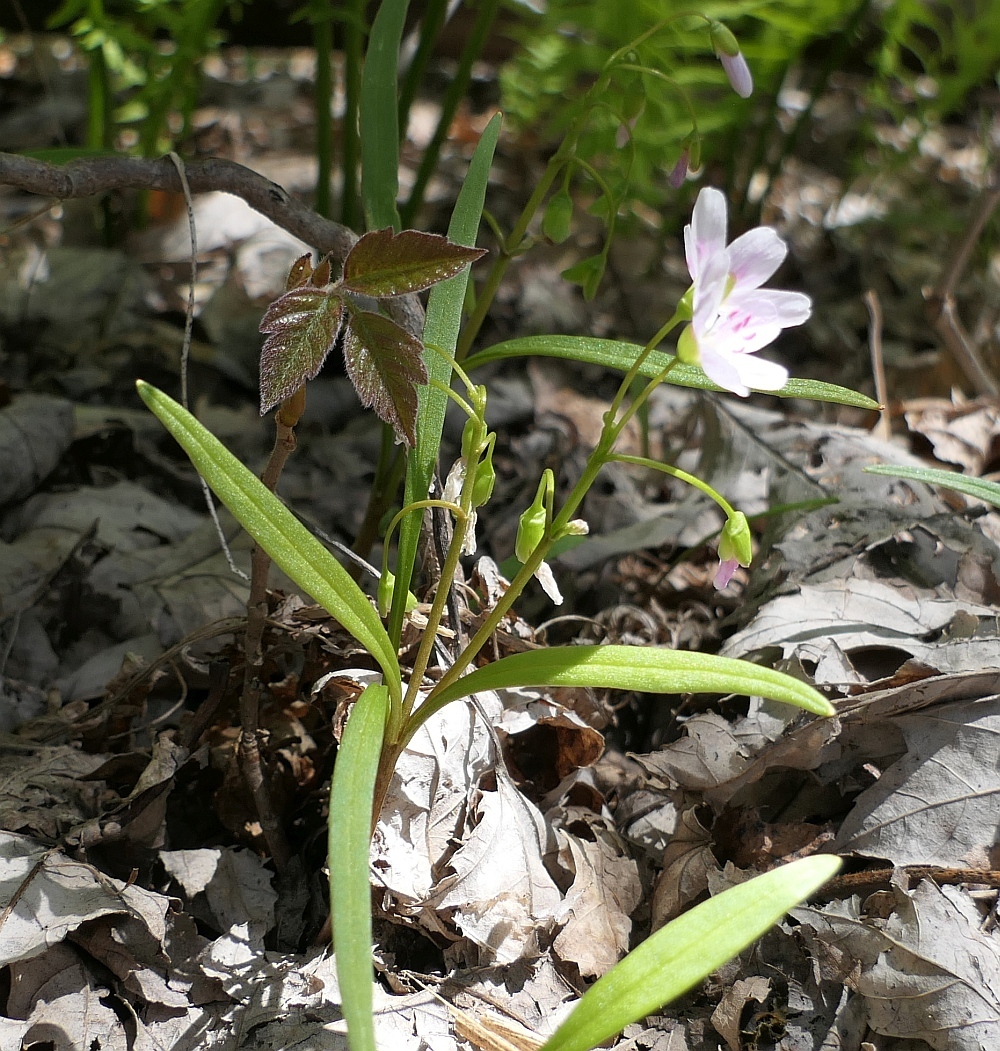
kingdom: Plantae
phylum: Tracheophyta
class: Magnoliopsida
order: Caryophyllales
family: Montiaceae
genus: Claytonia
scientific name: Claytonia virginica
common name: Virginia springbeauty
